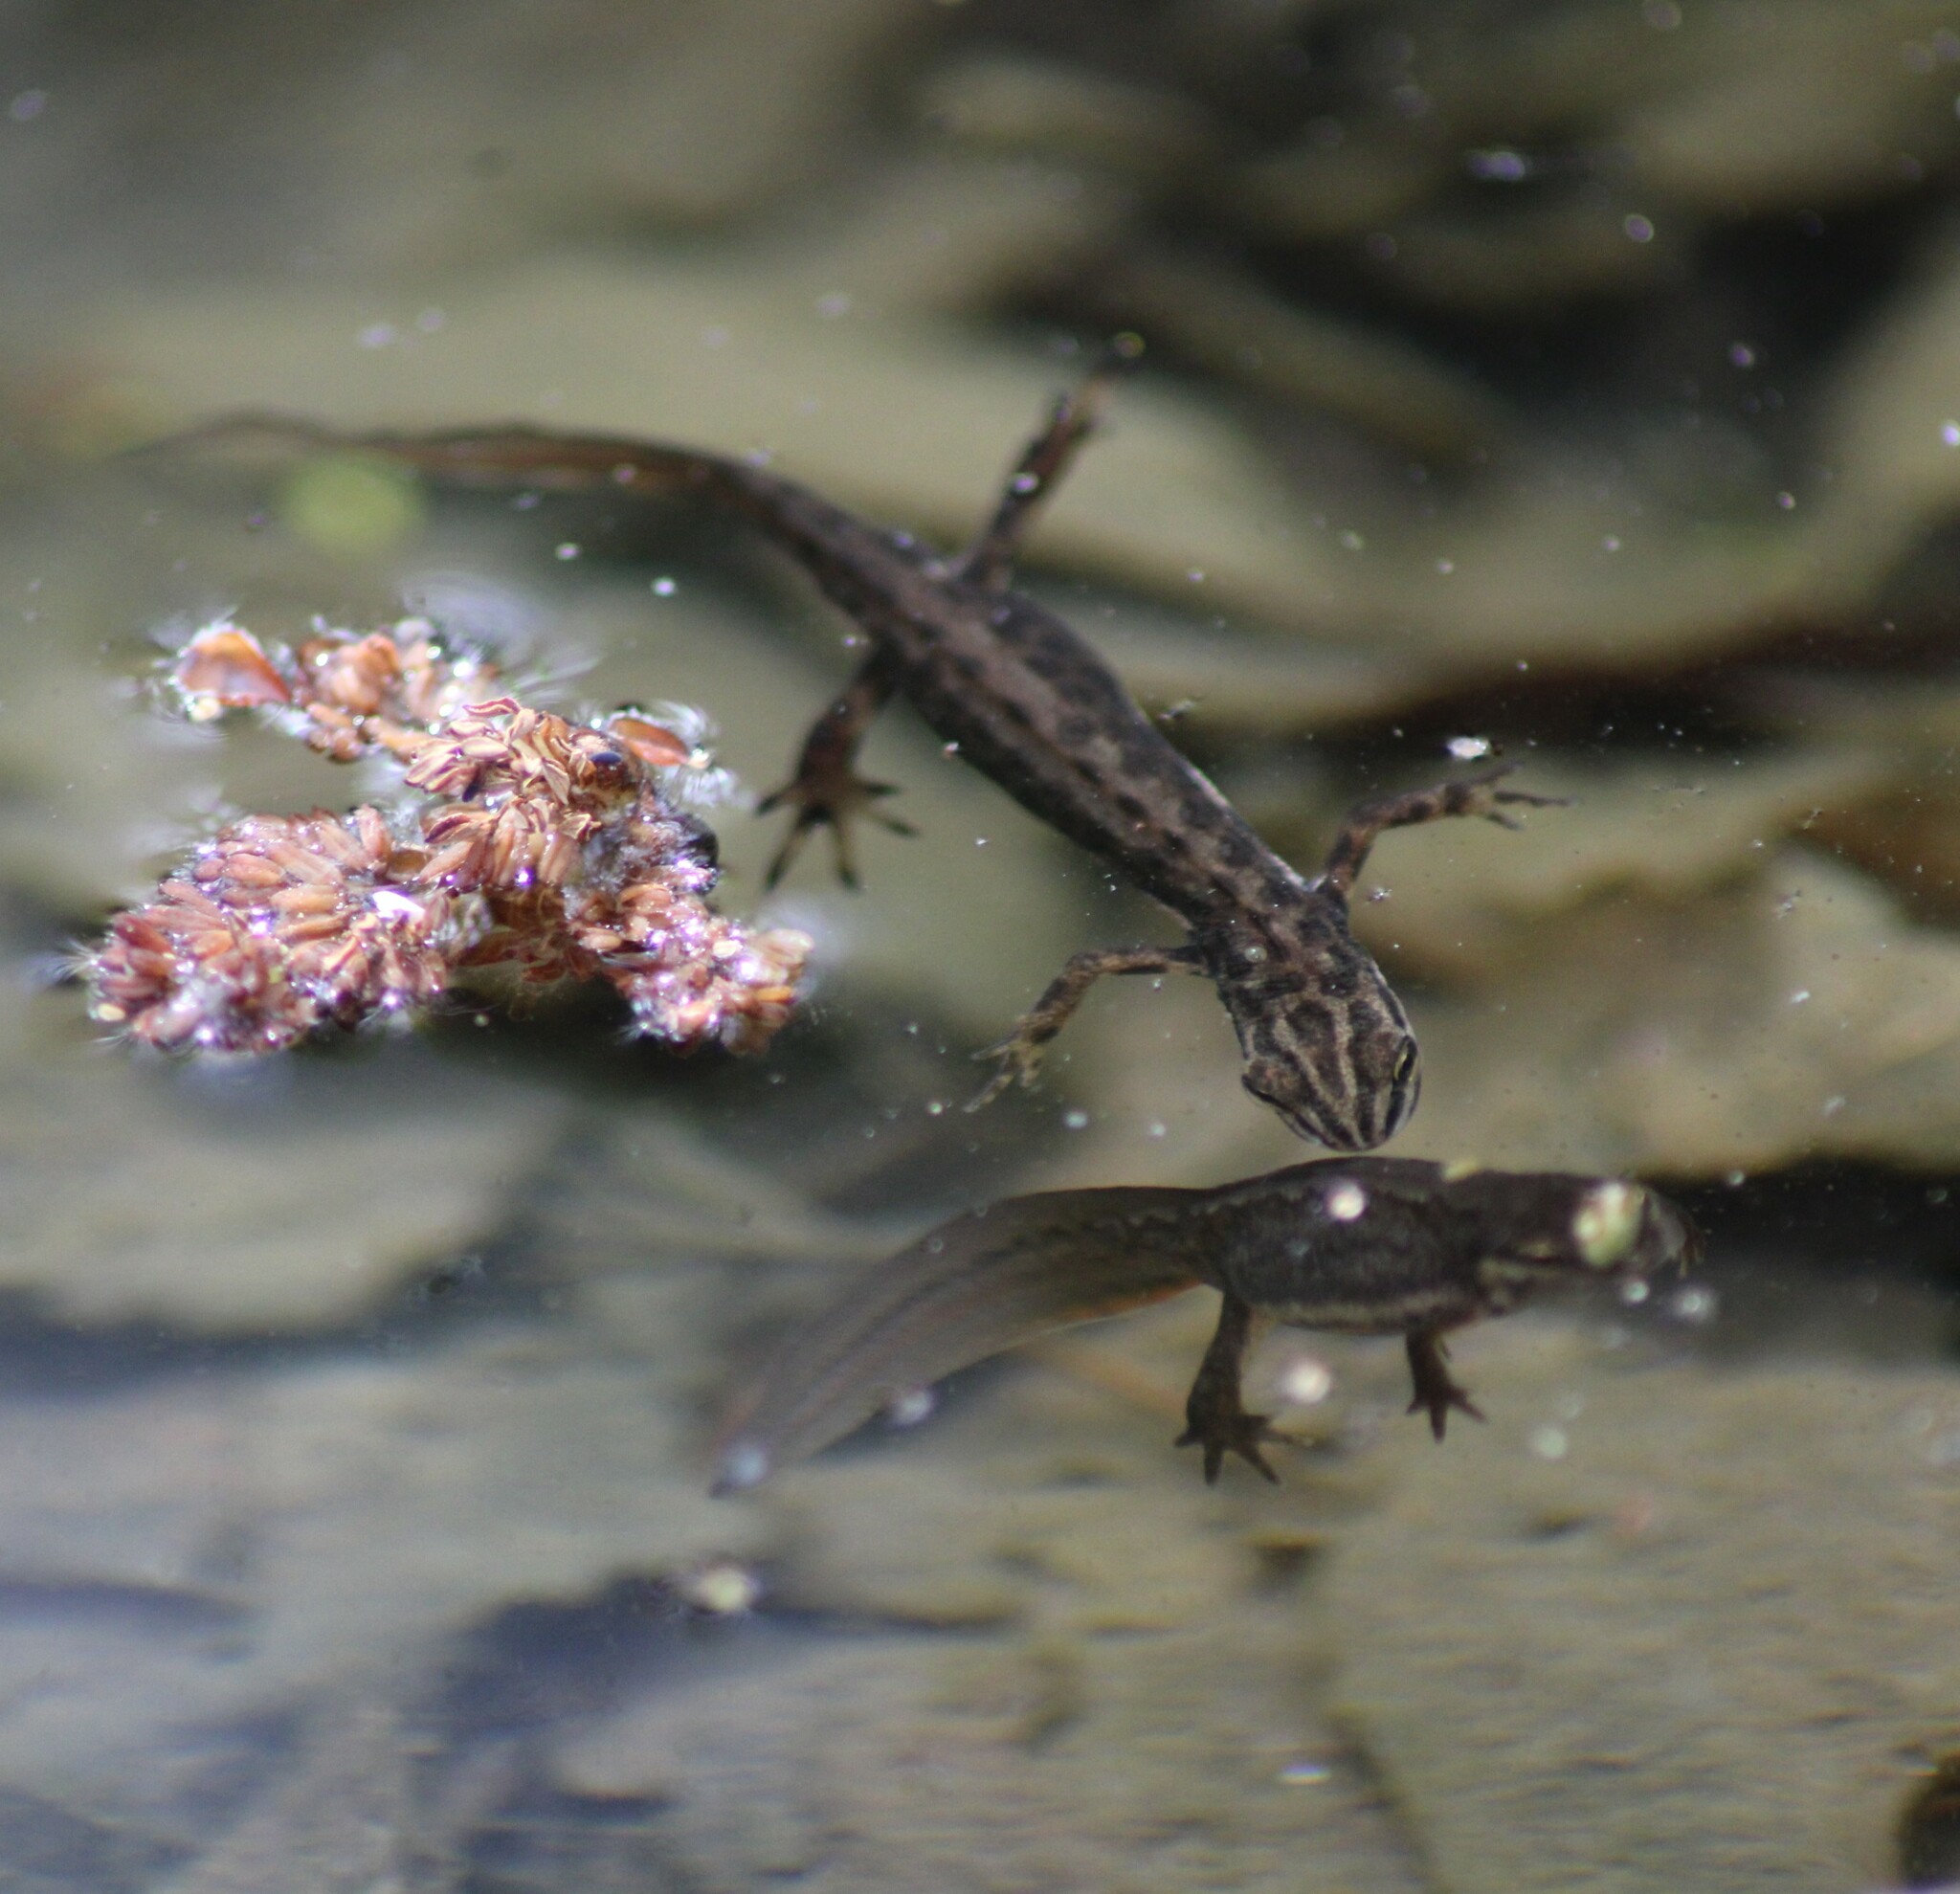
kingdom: Animalia
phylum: Chordata
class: Amphibia
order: Caudata
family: Salamandridae
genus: Lissotriton
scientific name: Lissotriton vulgaris
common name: Smooth newt
